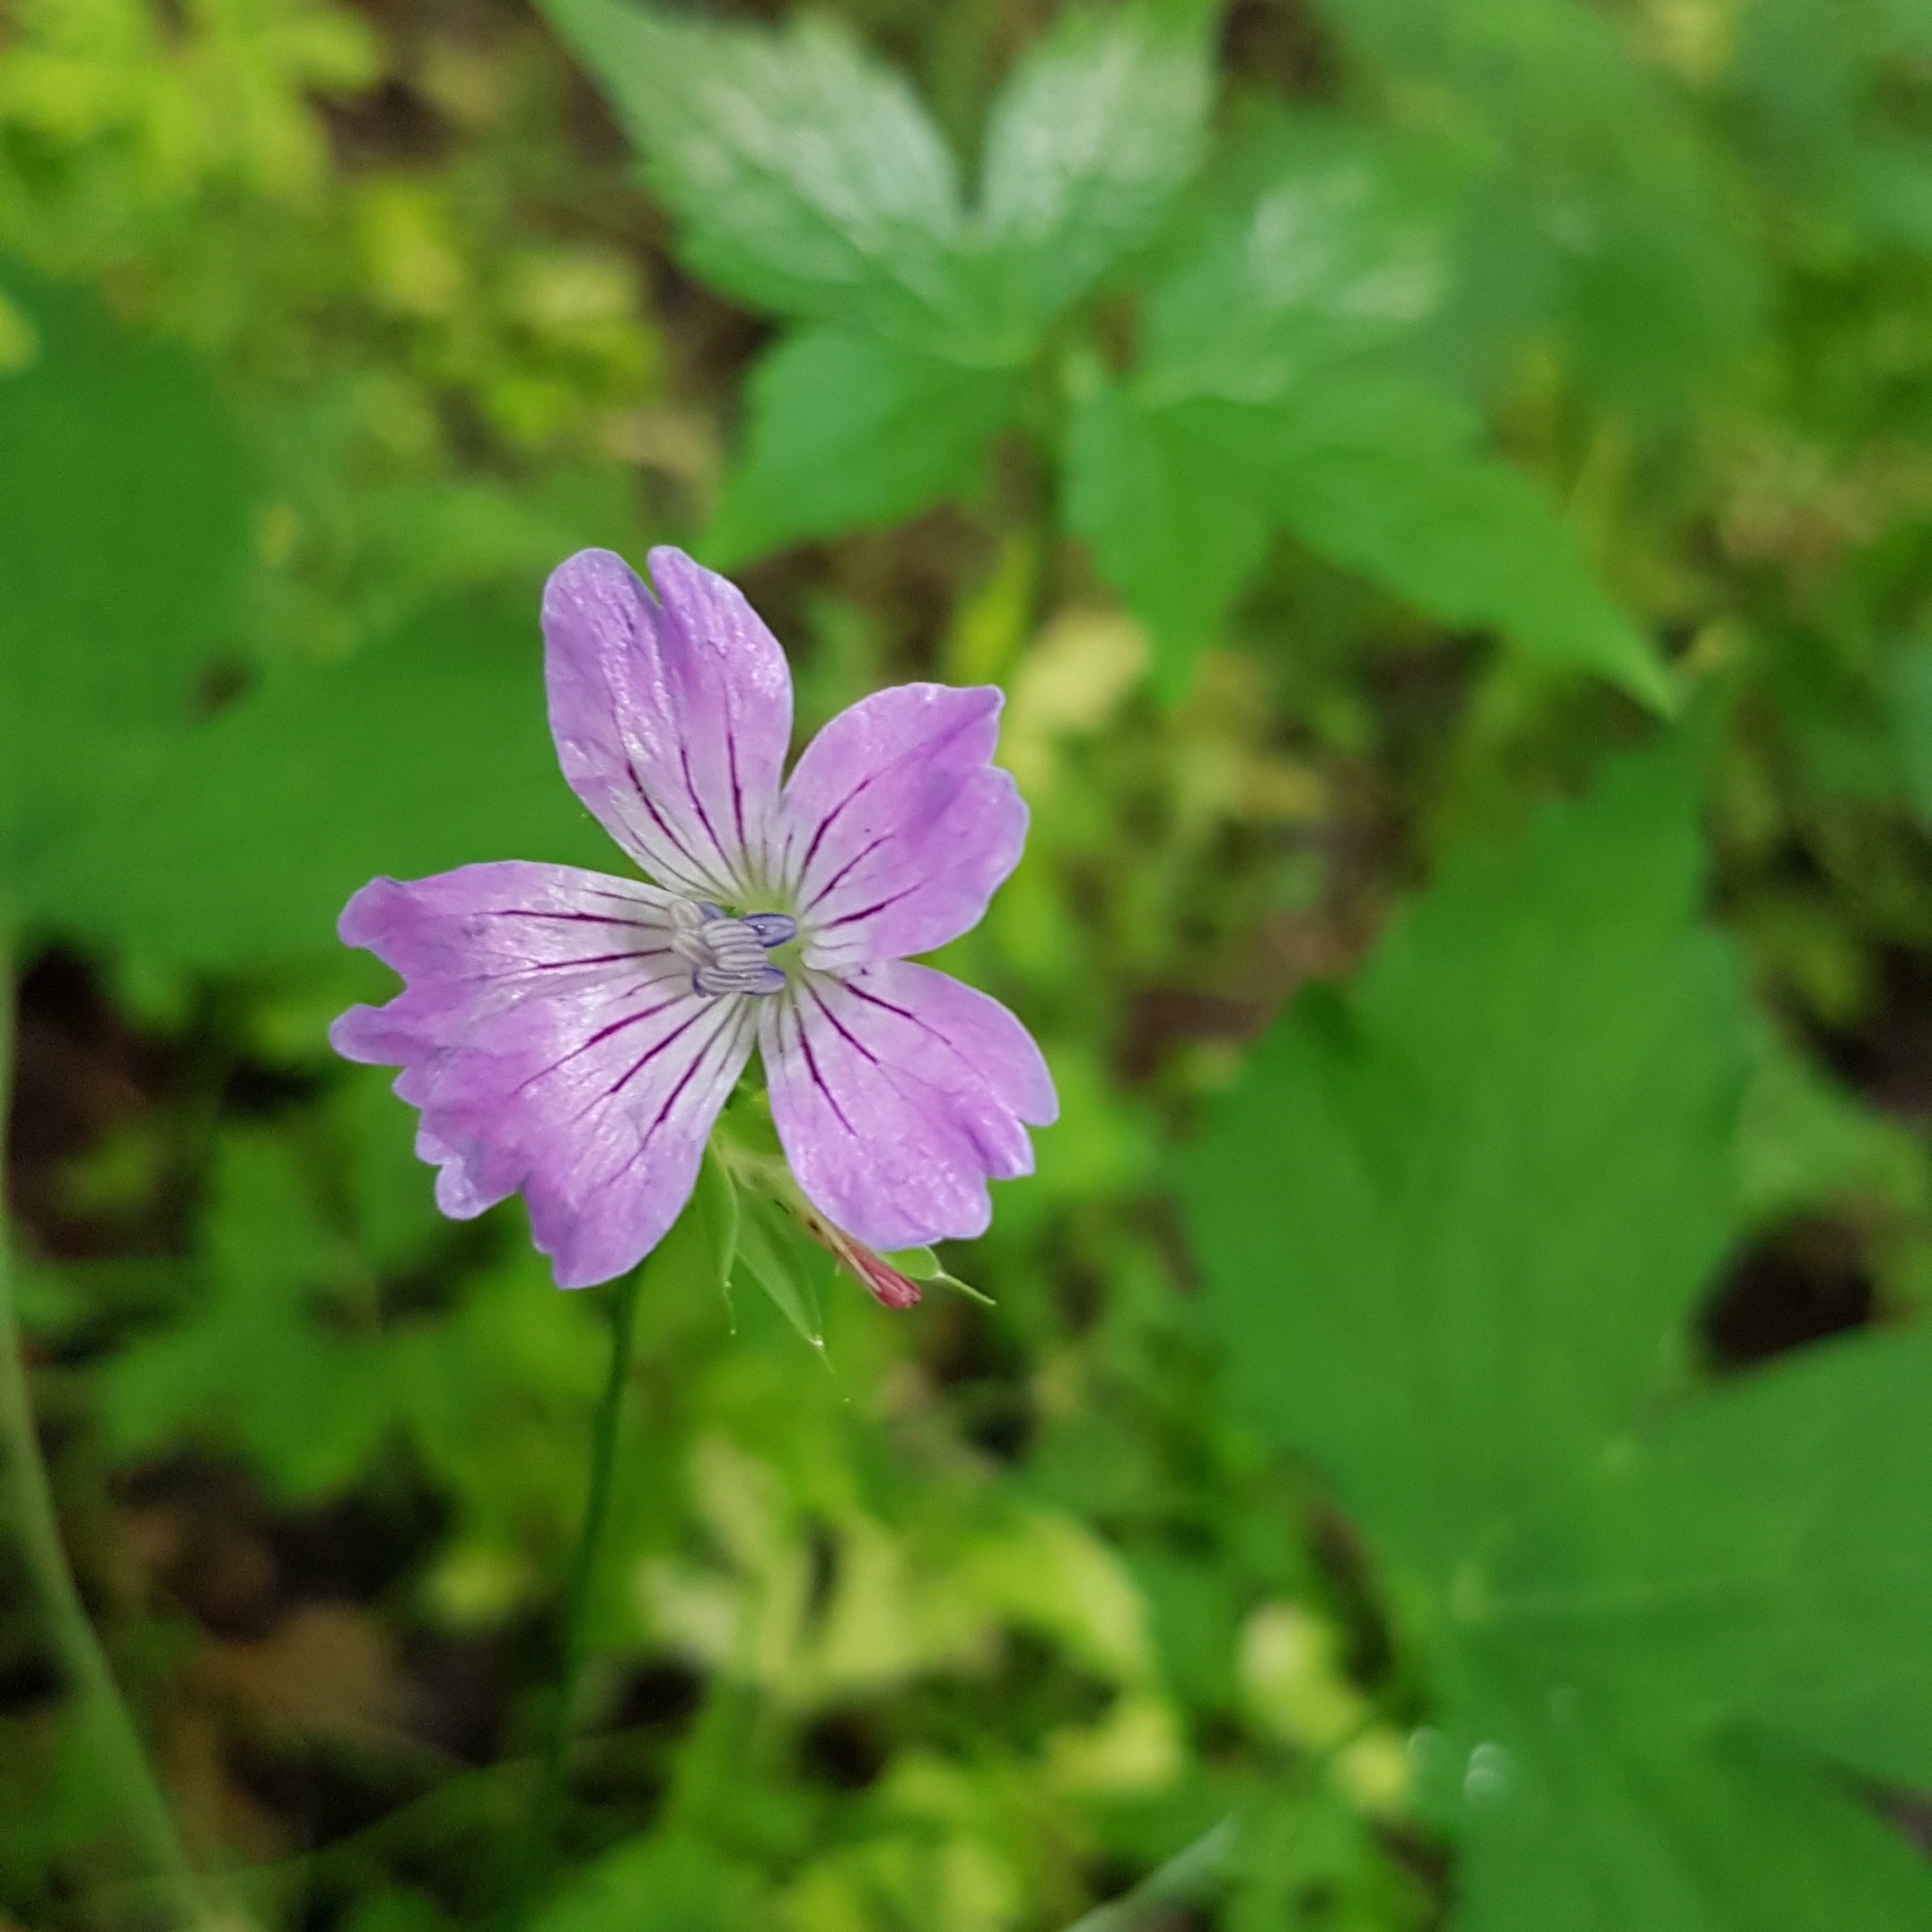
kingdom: Plantae
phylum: Tracheophyta
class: Magnoliopsida
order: Geraniales
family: Geraniaceae
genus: Geranium
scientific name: Geranium nodosum
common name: Knotted crane's-bill
